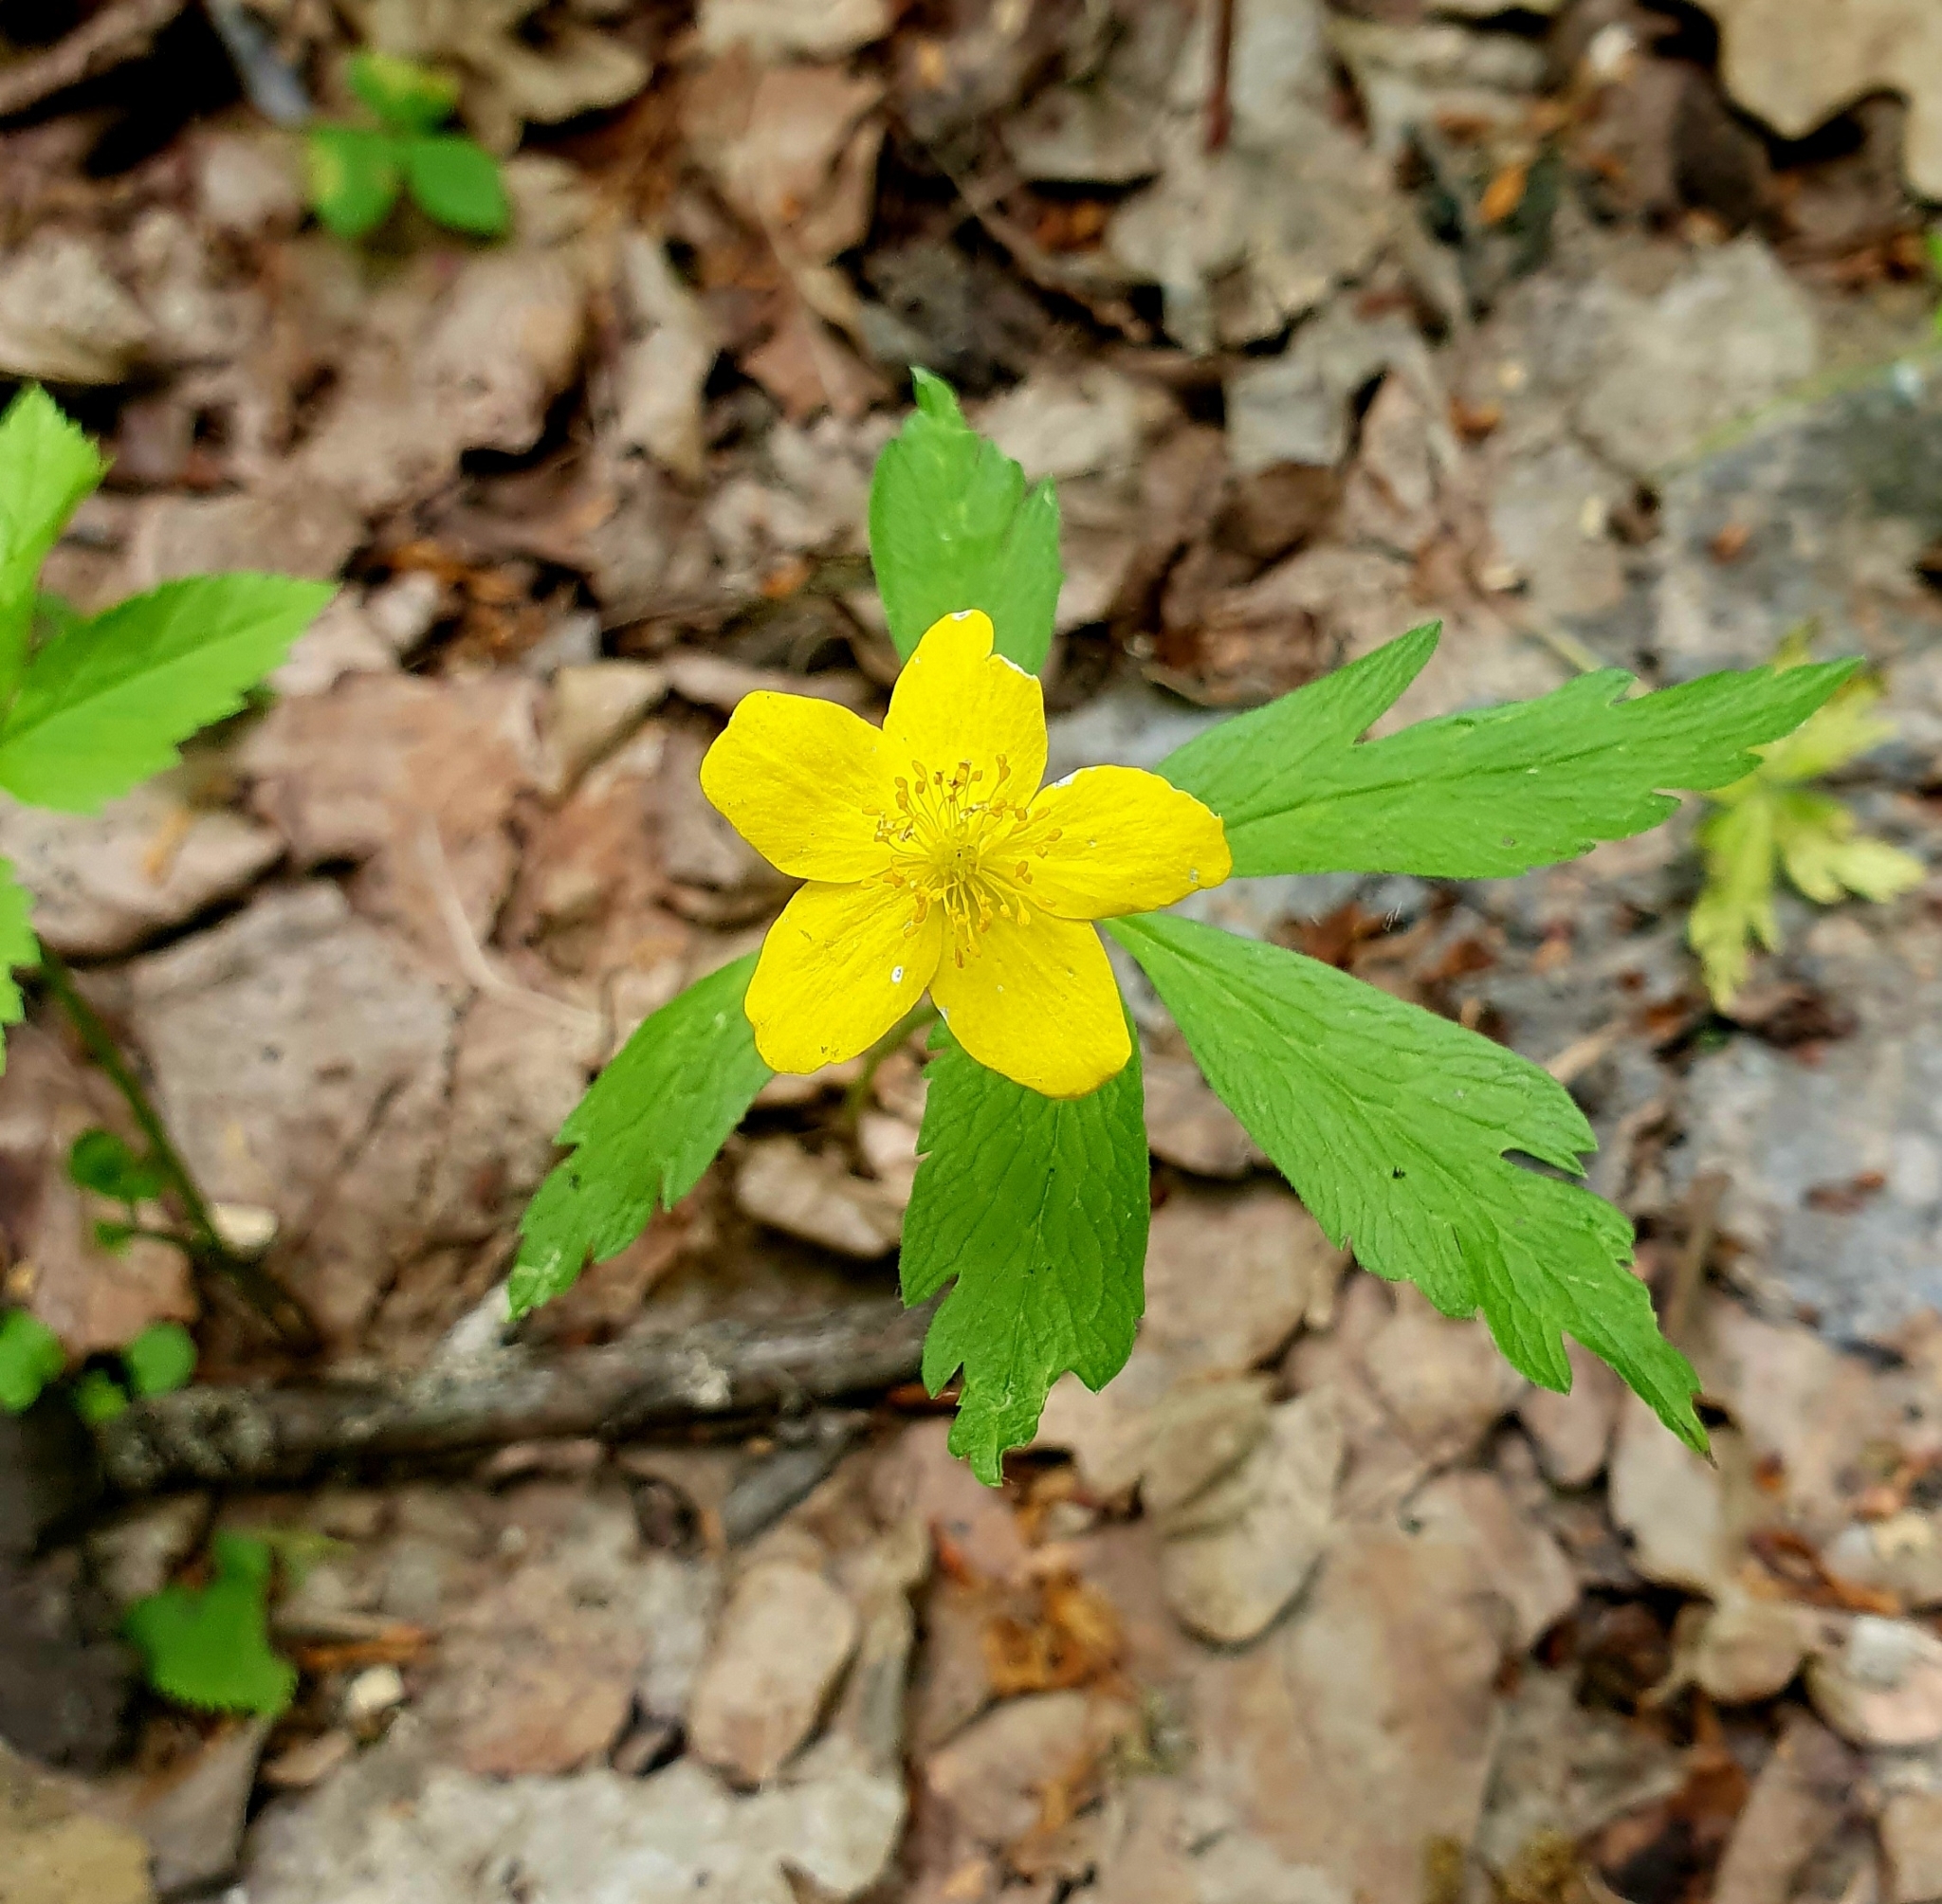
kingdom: Plantae
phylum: Tracheophyta
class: Magnoliopsida
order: Ranunculales
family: Ranunculaceae
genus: Anemone
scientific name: Anemone ranunculoides
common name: Yellow anemone
